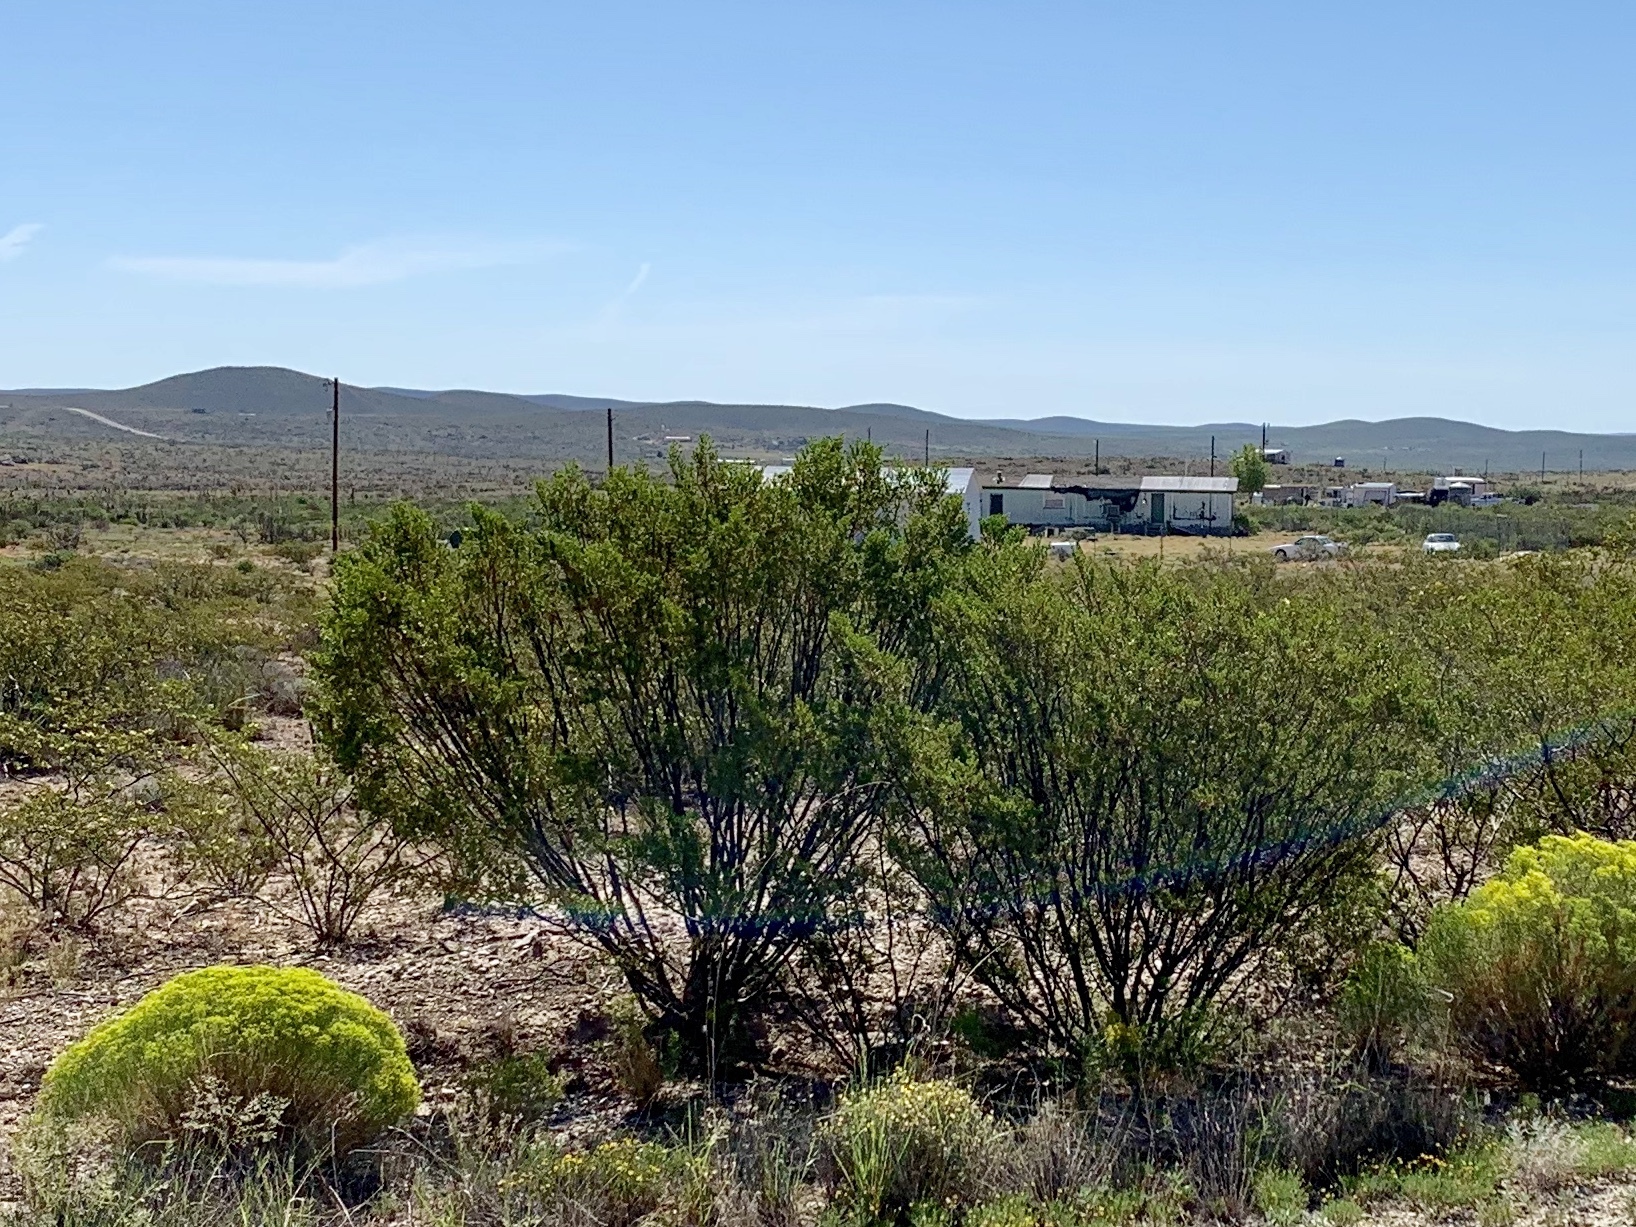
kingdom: Plantae
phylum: Tracheophyta
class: Magnoliopsida
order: Zygophyllales
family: Zygophyllaceae
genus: Larrea
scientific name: Larrea tridentata
